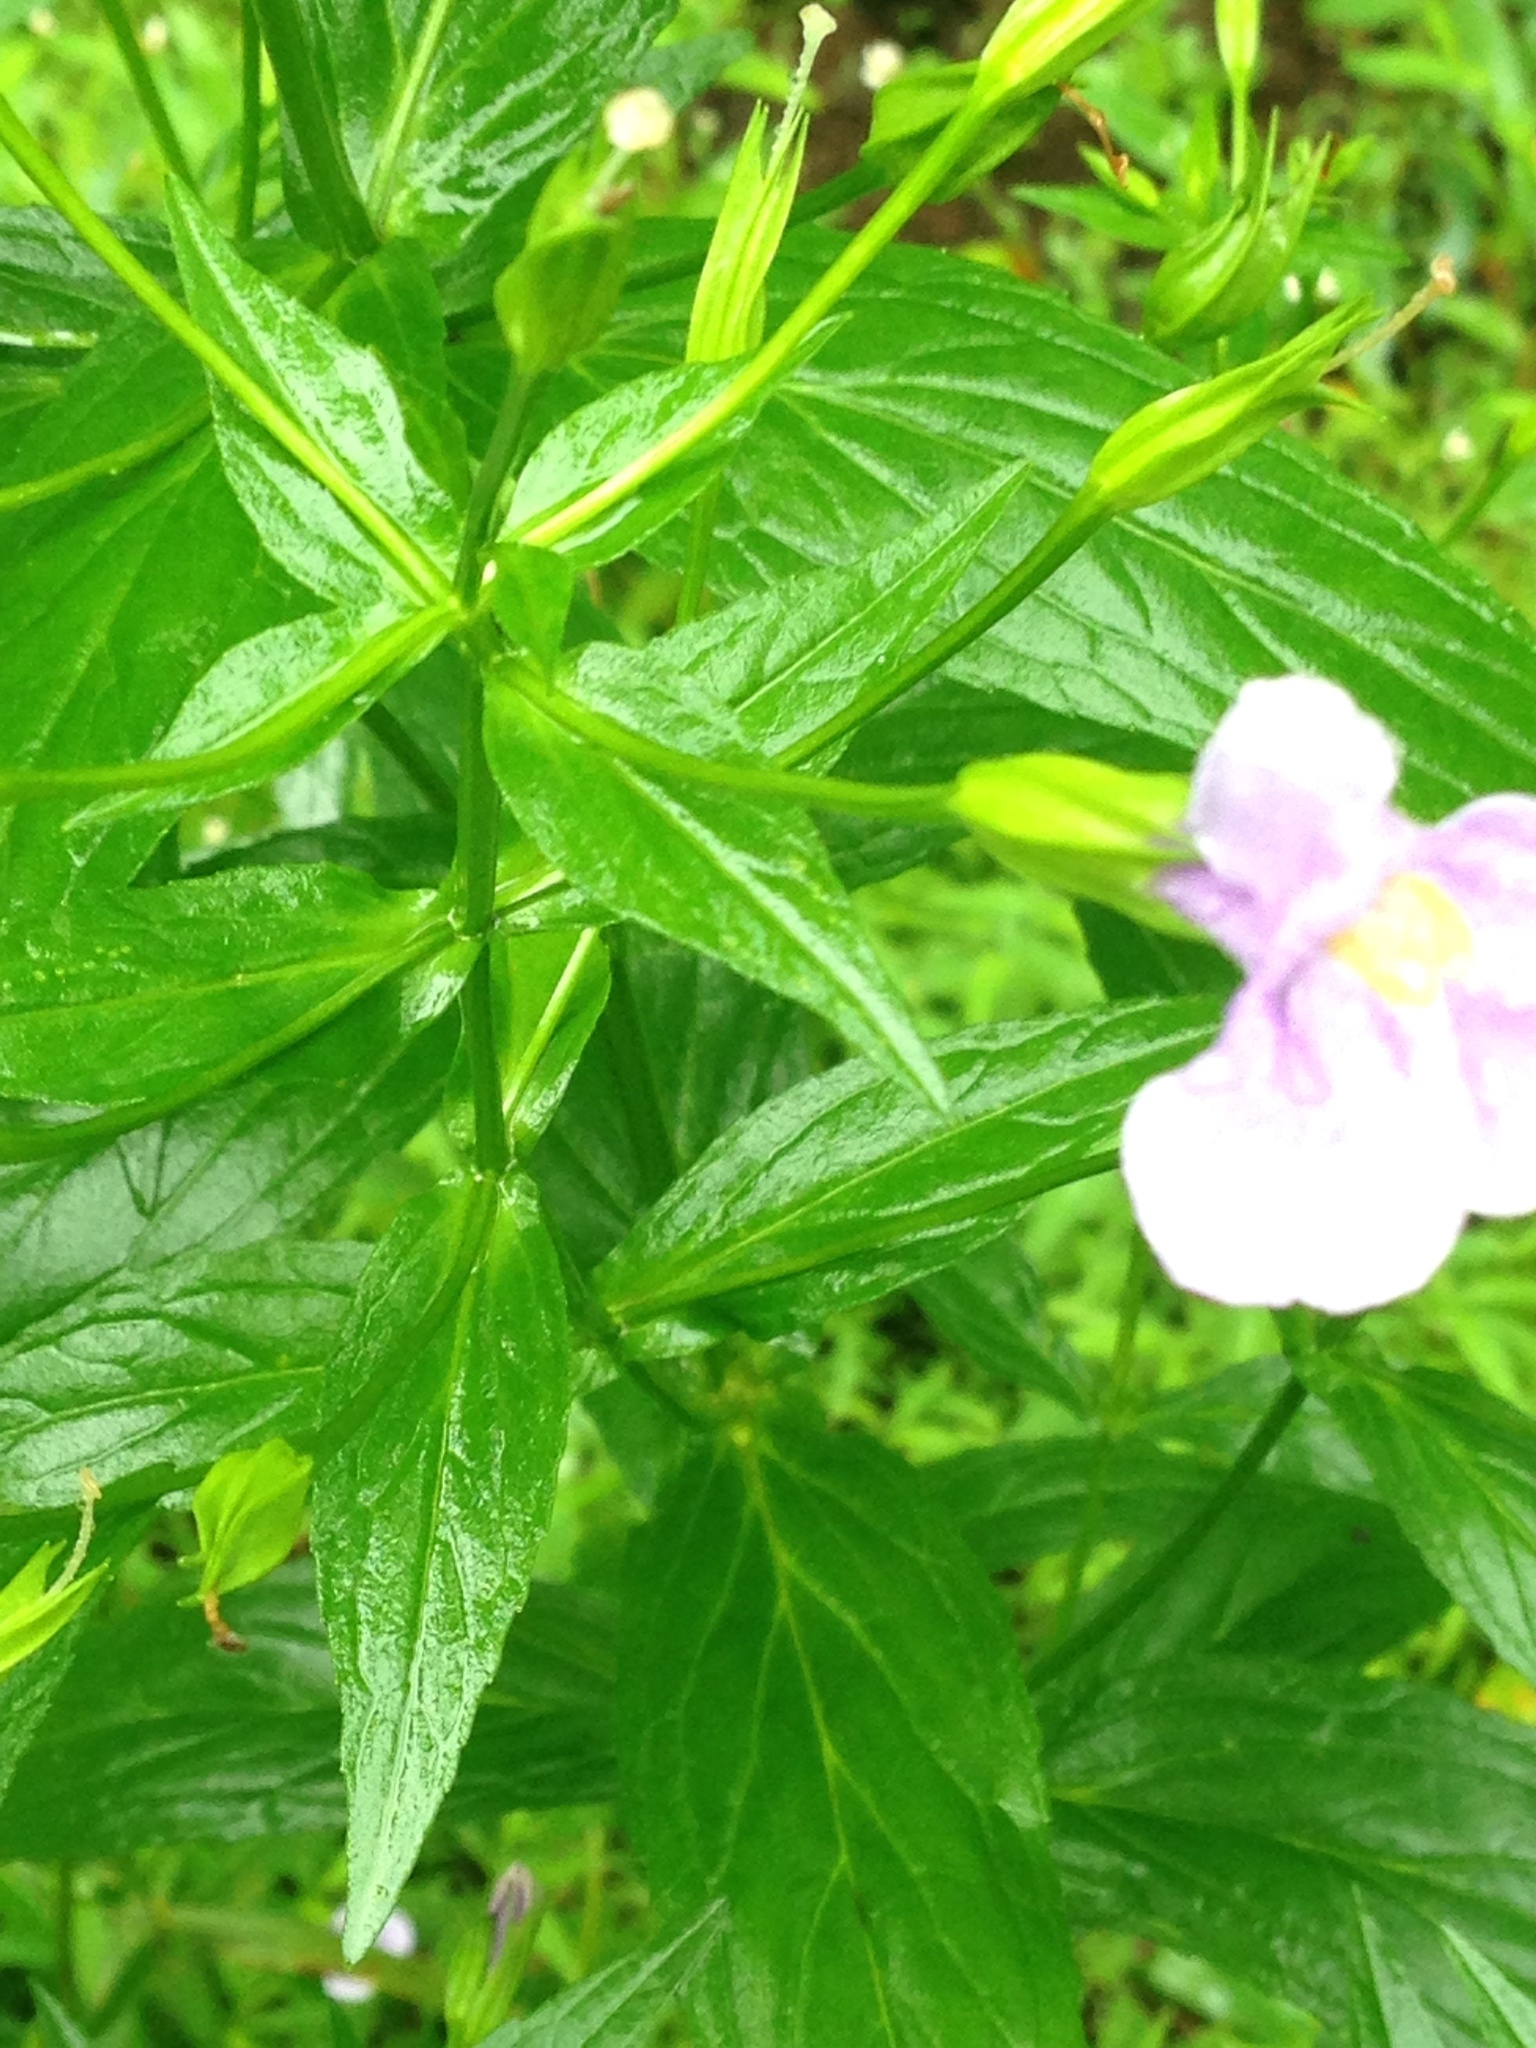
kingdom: Plantae
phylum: Tracheophyta
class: Magnoliopsida
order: Lamiales
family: Phrymaceae
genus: Mimulus
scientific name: Mimulus ringens
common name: Allegheny monkeyflower
